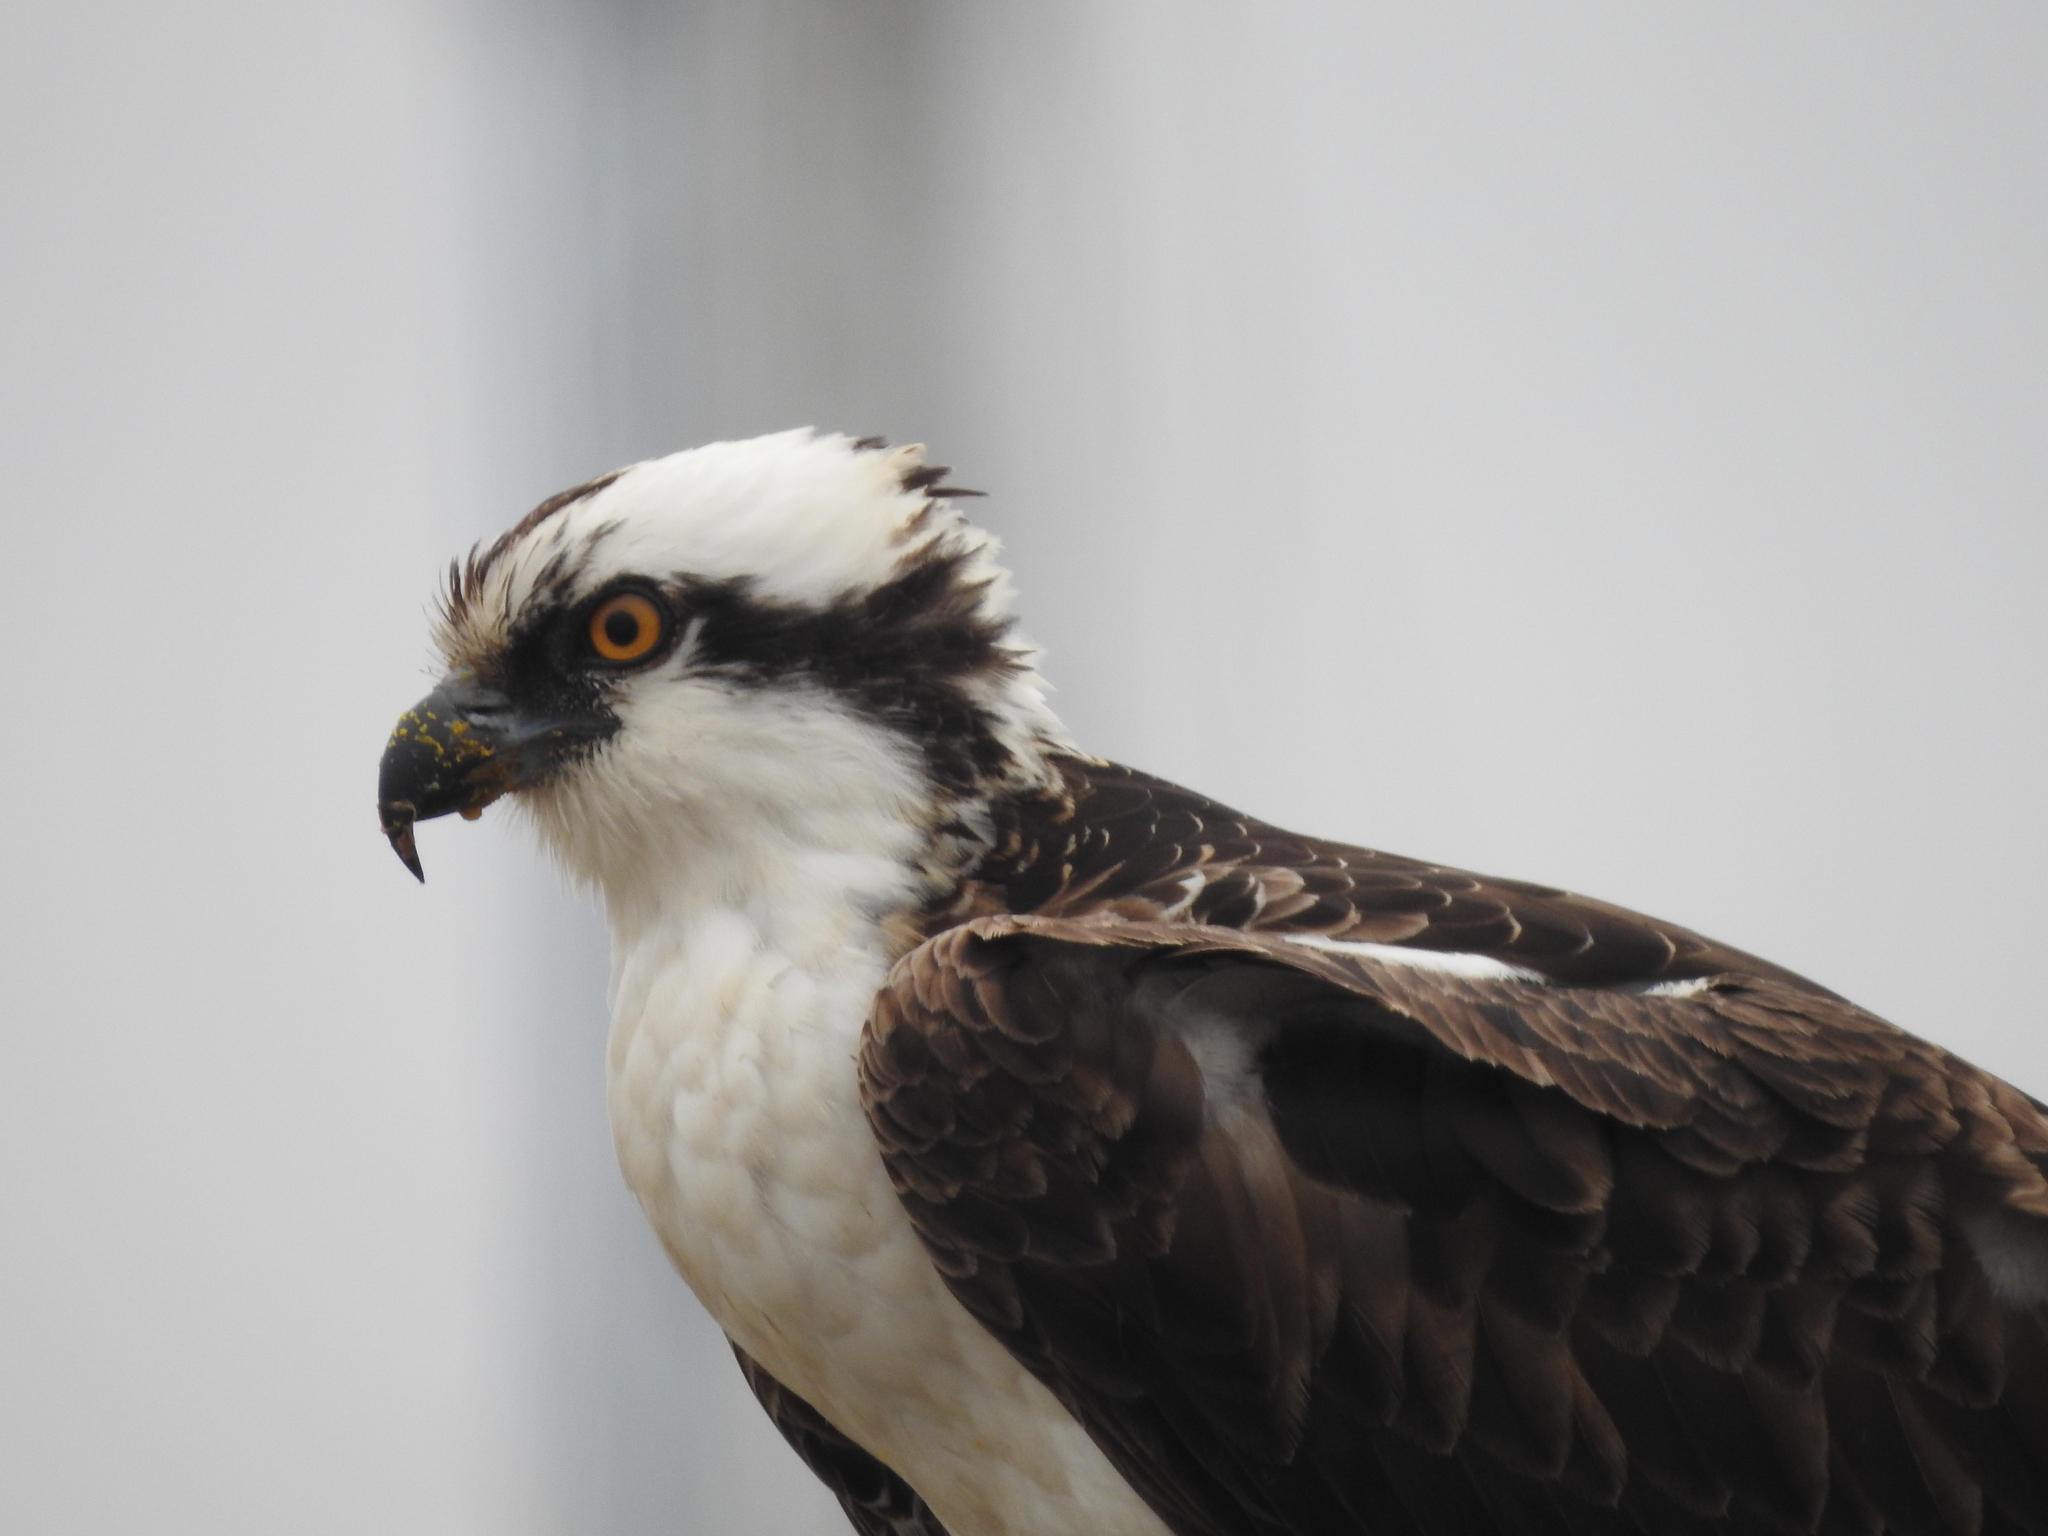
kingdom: Animalia
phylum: Chordata
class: Aves
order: Accipitriformes
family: Pandionidae
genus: Pandion
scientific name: Pandion haliaetus
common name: Osprey
